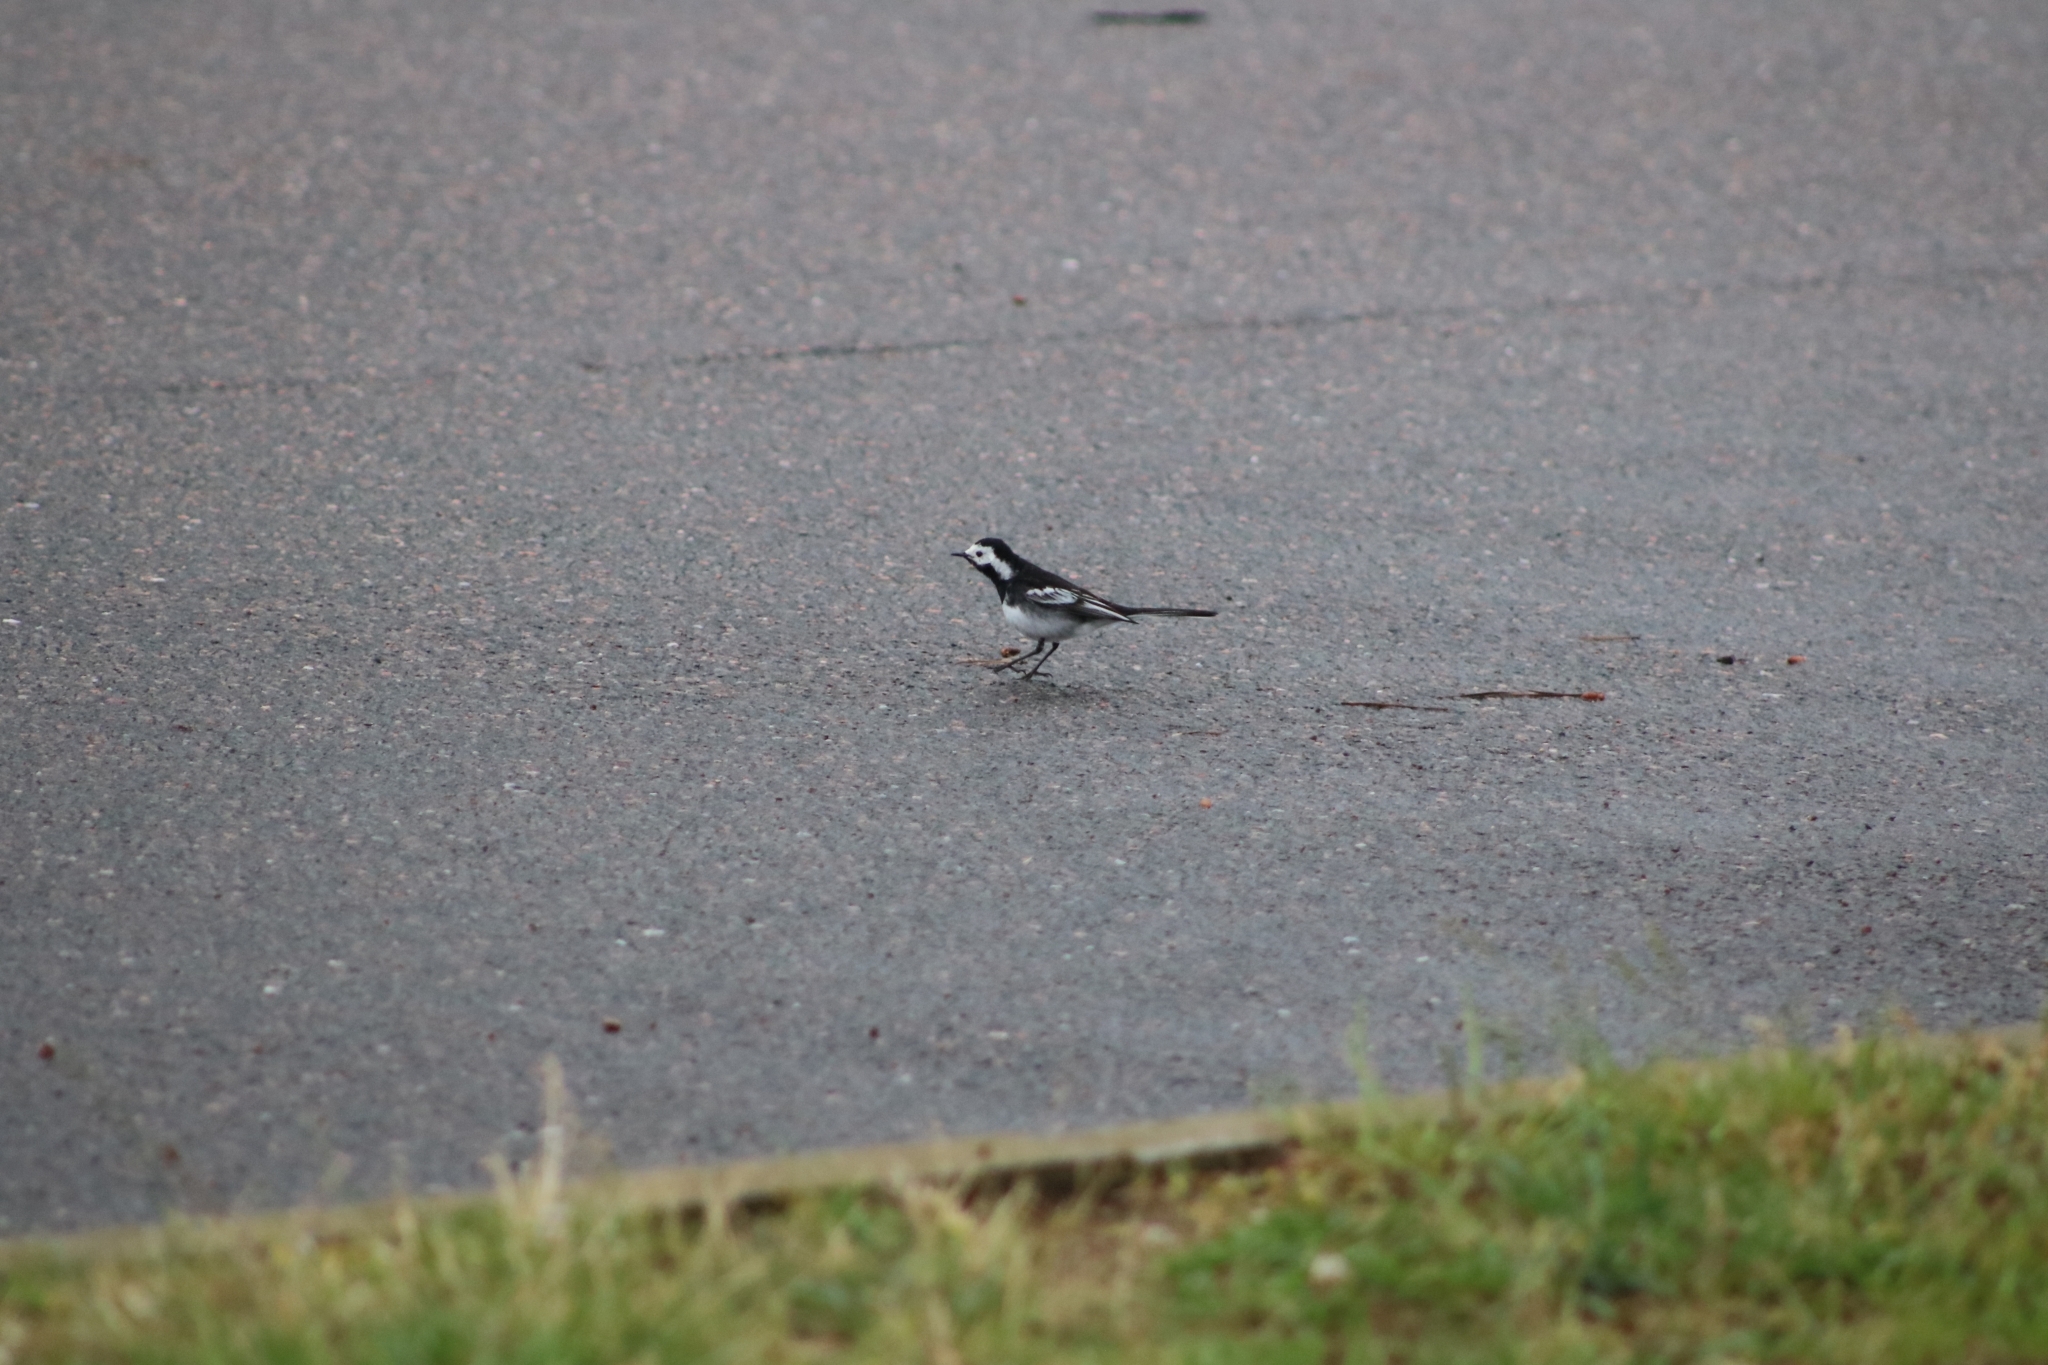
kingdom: Animalia
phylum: Chordata
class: Aves
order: Passeriformes
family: Motacillidae
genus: Motacilla
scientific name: Motacilla alba
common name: White wagtail
